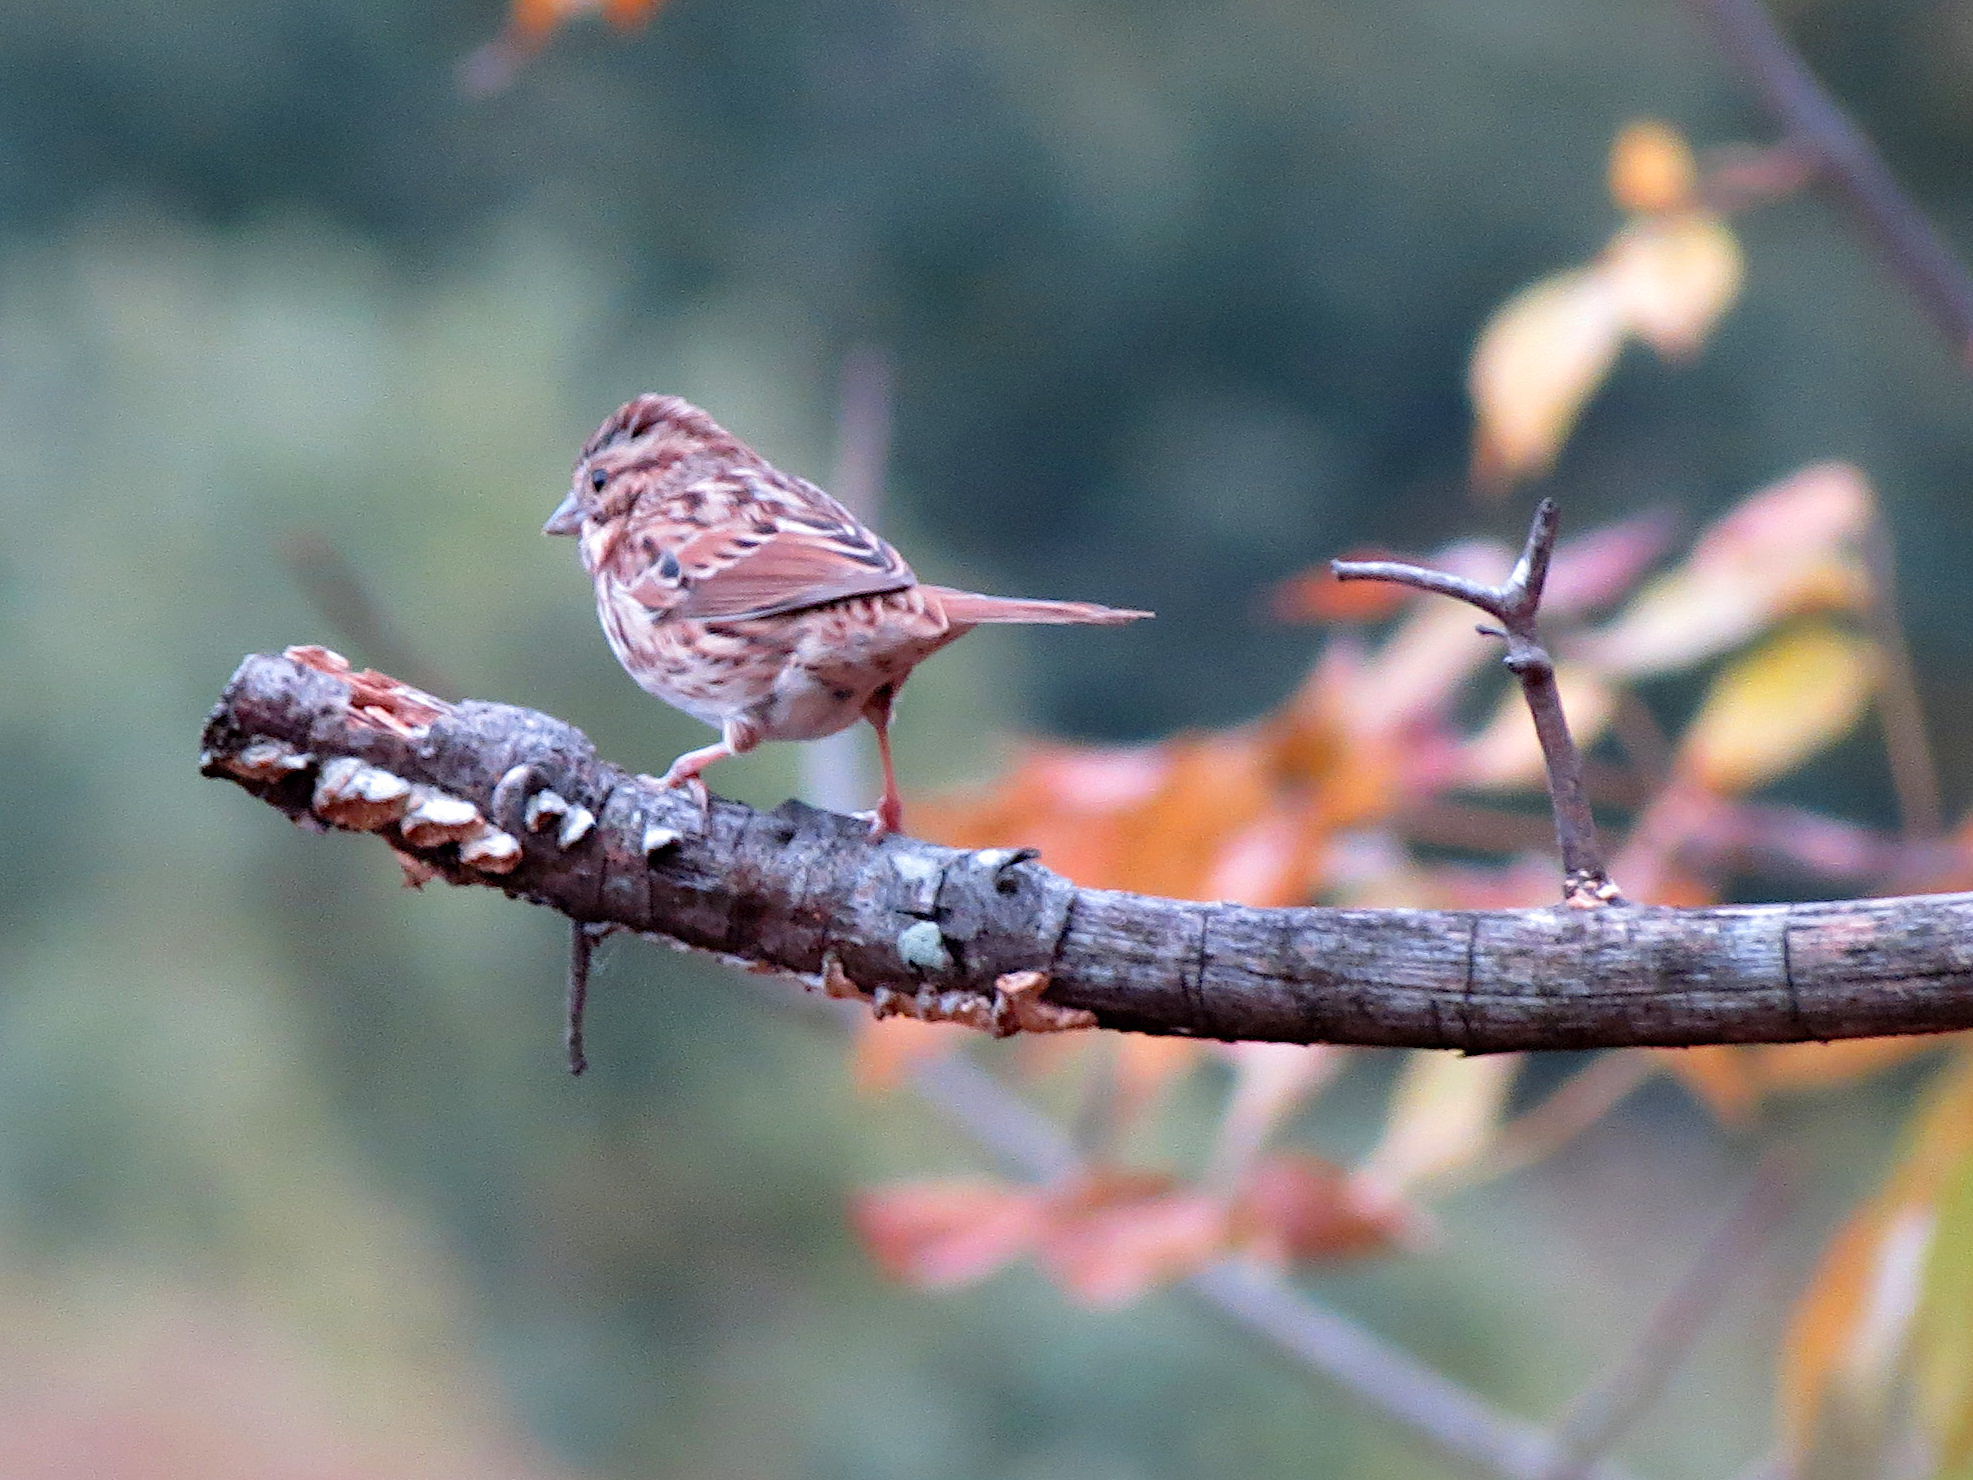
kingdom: Animalia
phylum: Chordata
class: Aves
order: Passeriformes
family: Passerellidae
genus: Melospiza
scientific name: Melospiza melodia
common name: Song sparrow
